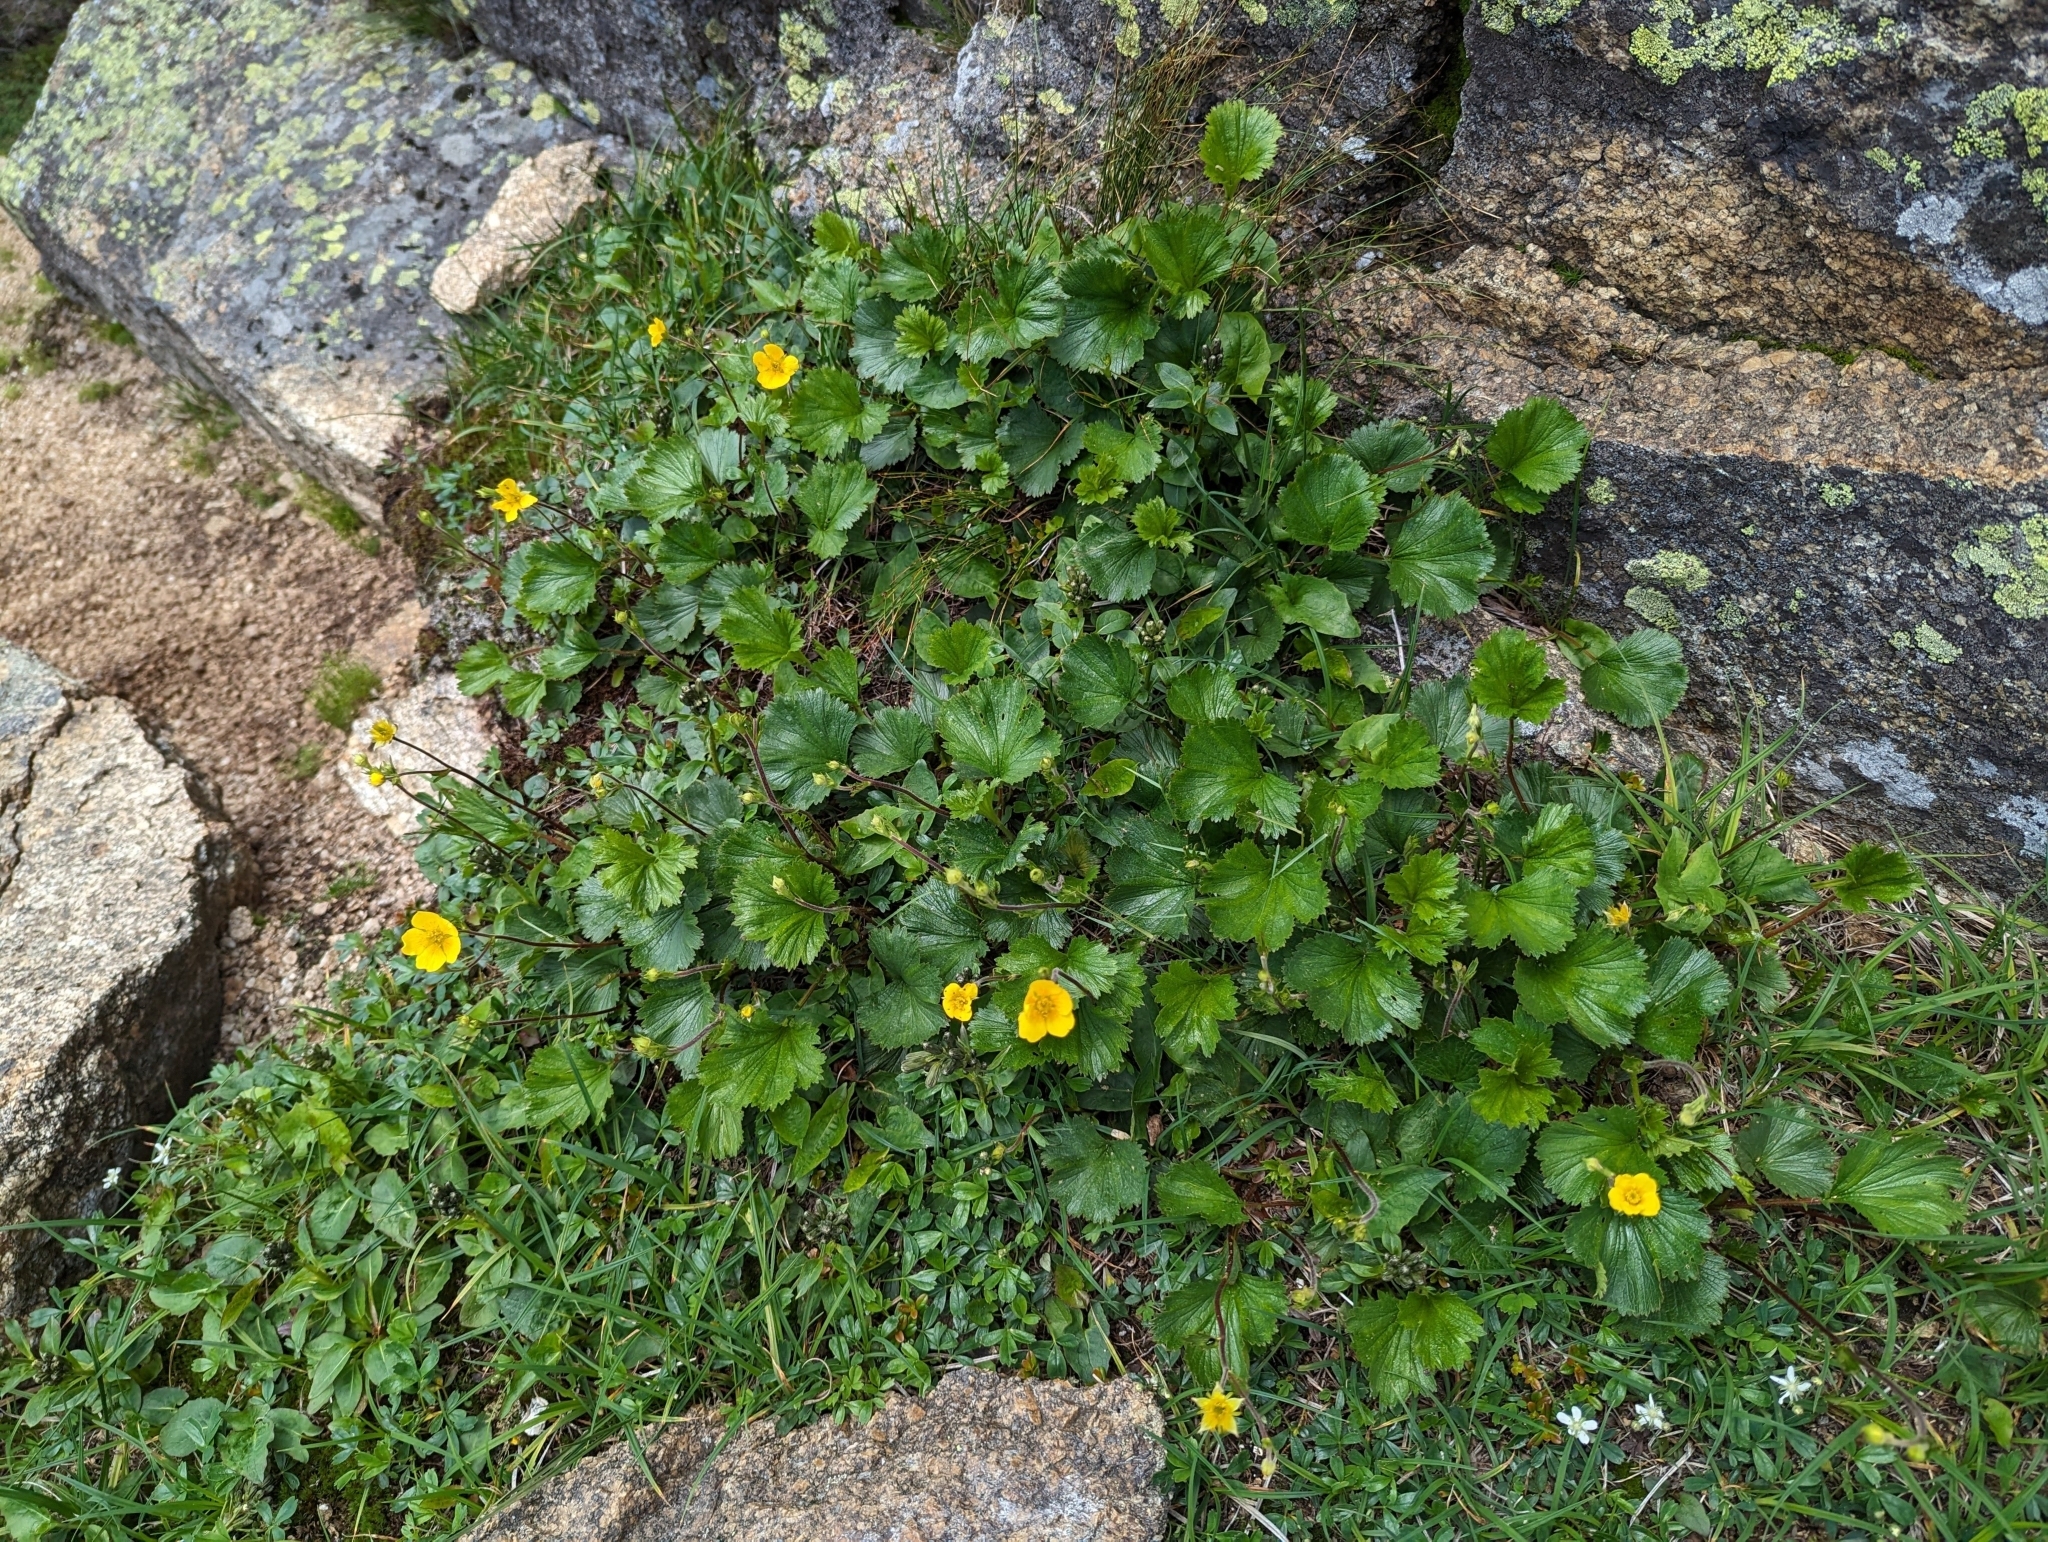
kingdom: Plantae
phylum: Tracheophyta
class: Magnoliopsida
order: Rosales
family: Rosaceae
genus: Geum
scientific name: Geum peckii
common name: Eastern mountain avens
